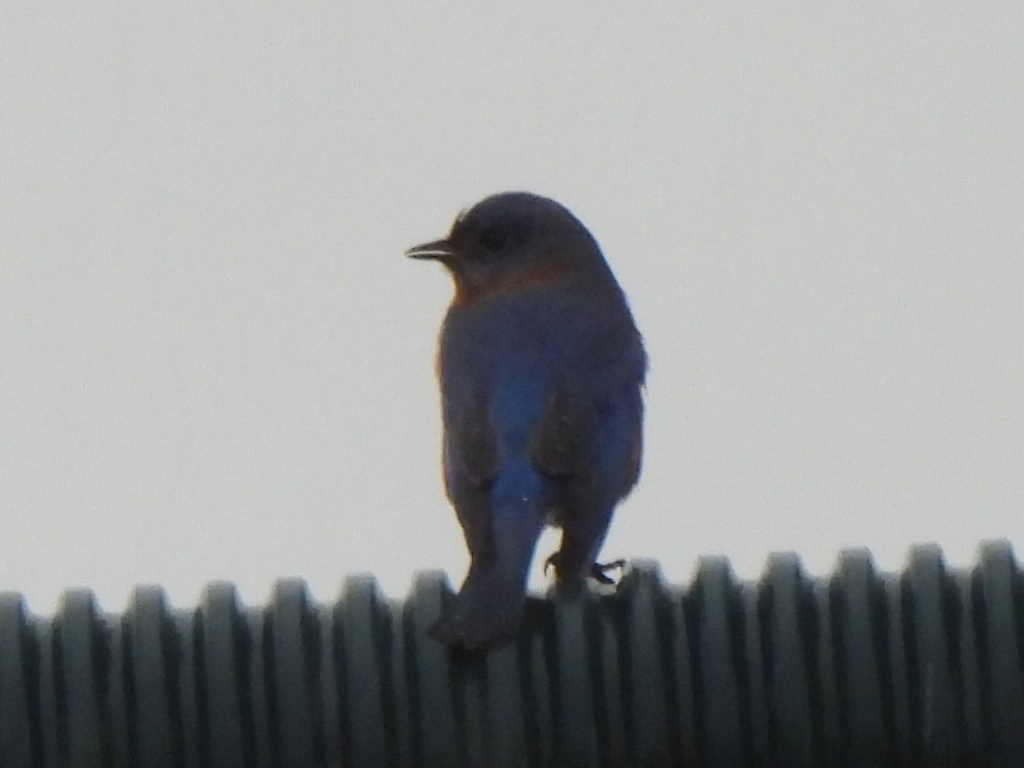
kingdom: Animalia
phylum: Chordata
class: Aves
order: Passeriformes
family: Turdidae
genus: Sialia
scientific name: Sialia sialis
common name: Eastern bluebird
